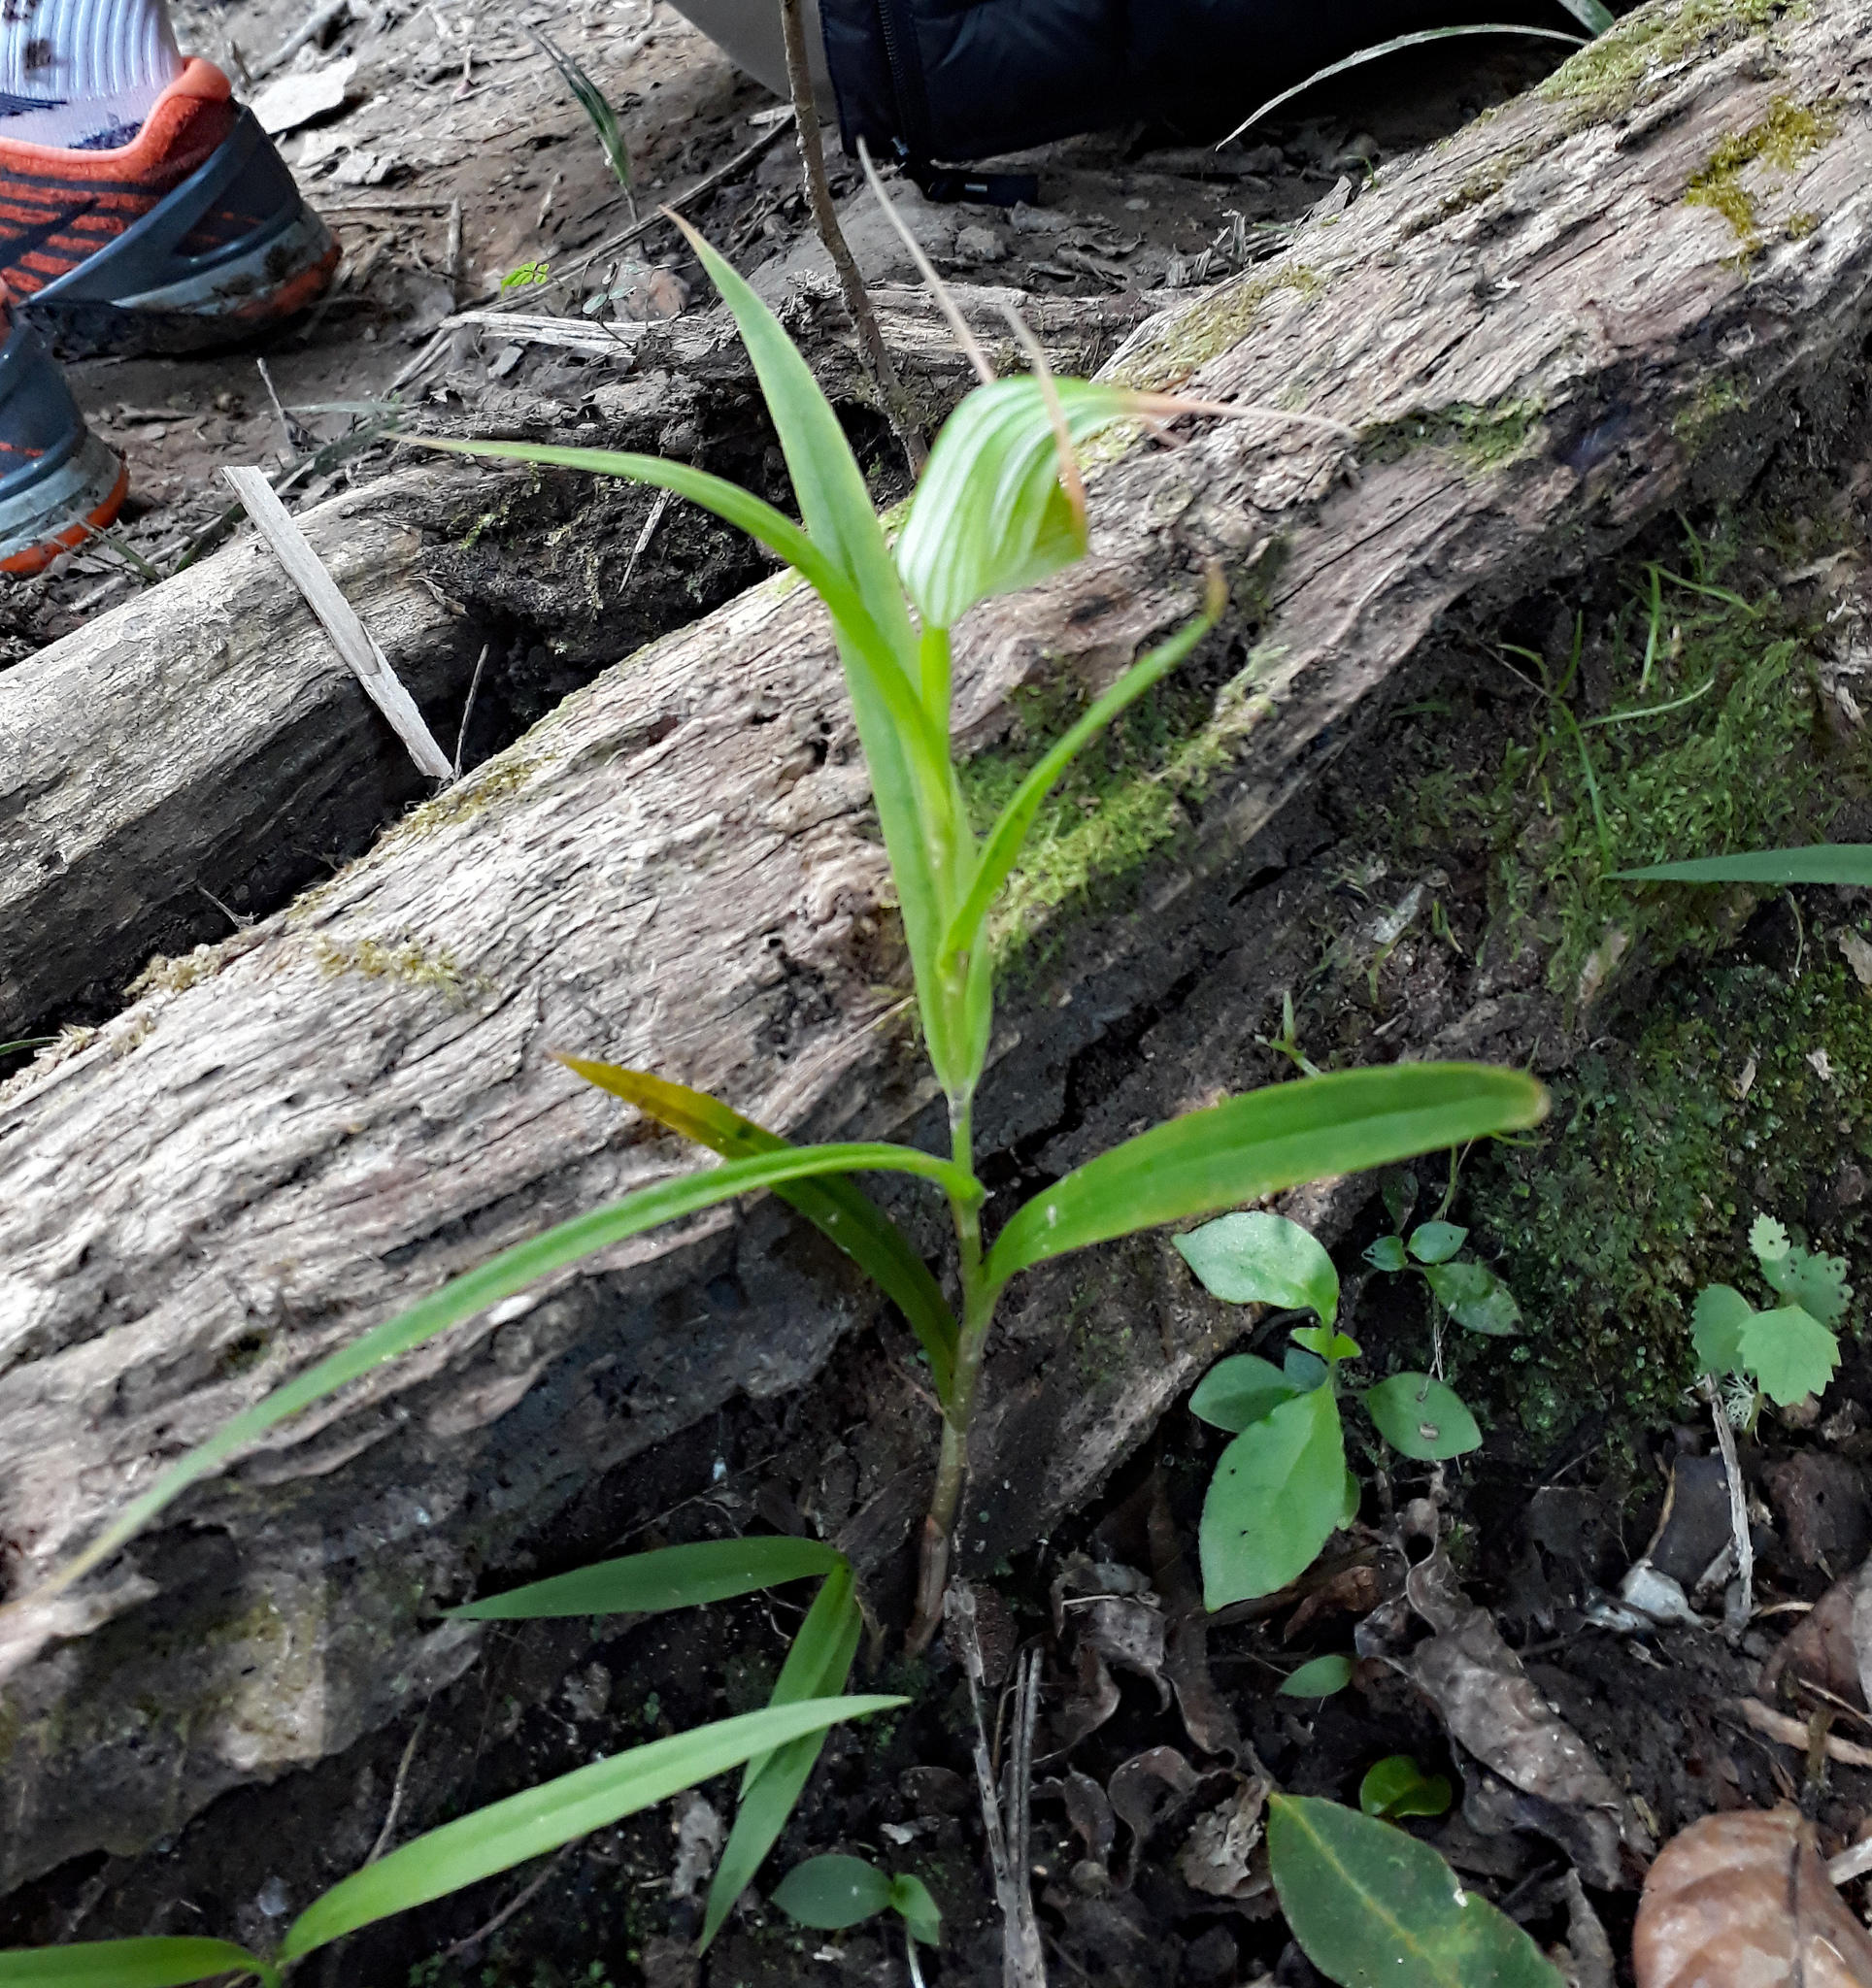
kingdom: Plantae
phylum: Tracheophyta
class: Liliopsida
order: Asparagales
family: Orchidaceae
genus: Pterostylis
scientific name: Pterostylis banksii
